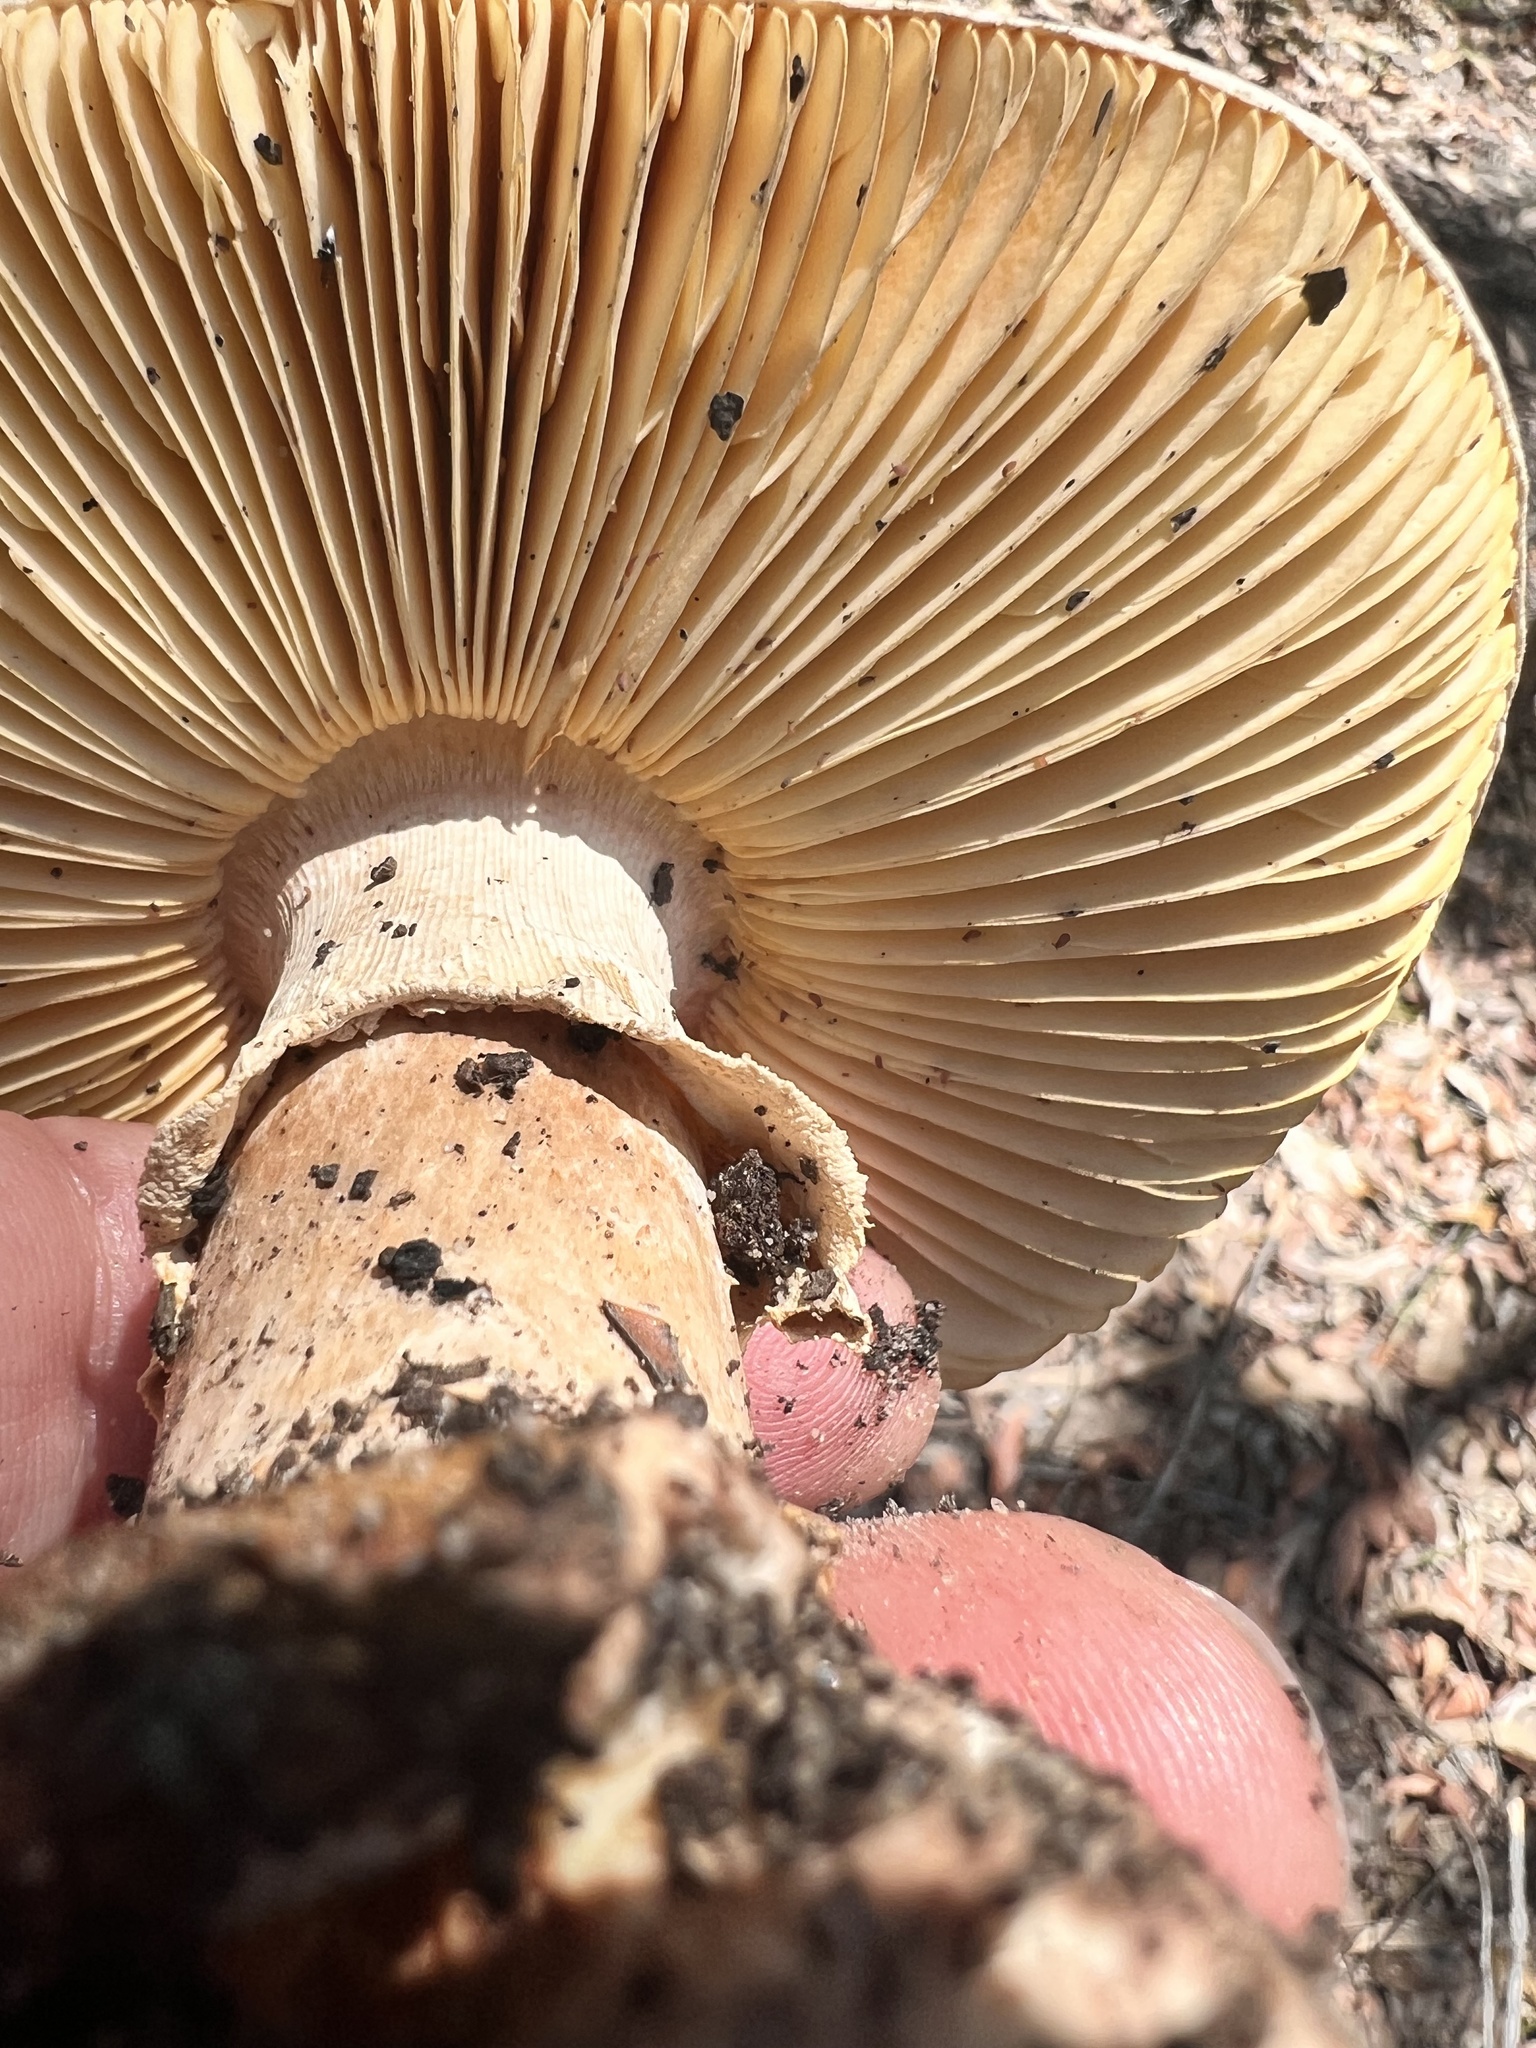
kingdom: Fungi
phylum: Basidiomycota
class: Agaricomycetes
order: Agaricales
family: Amanitaceae
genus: Amanita
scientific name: Amanita ochrophylla
